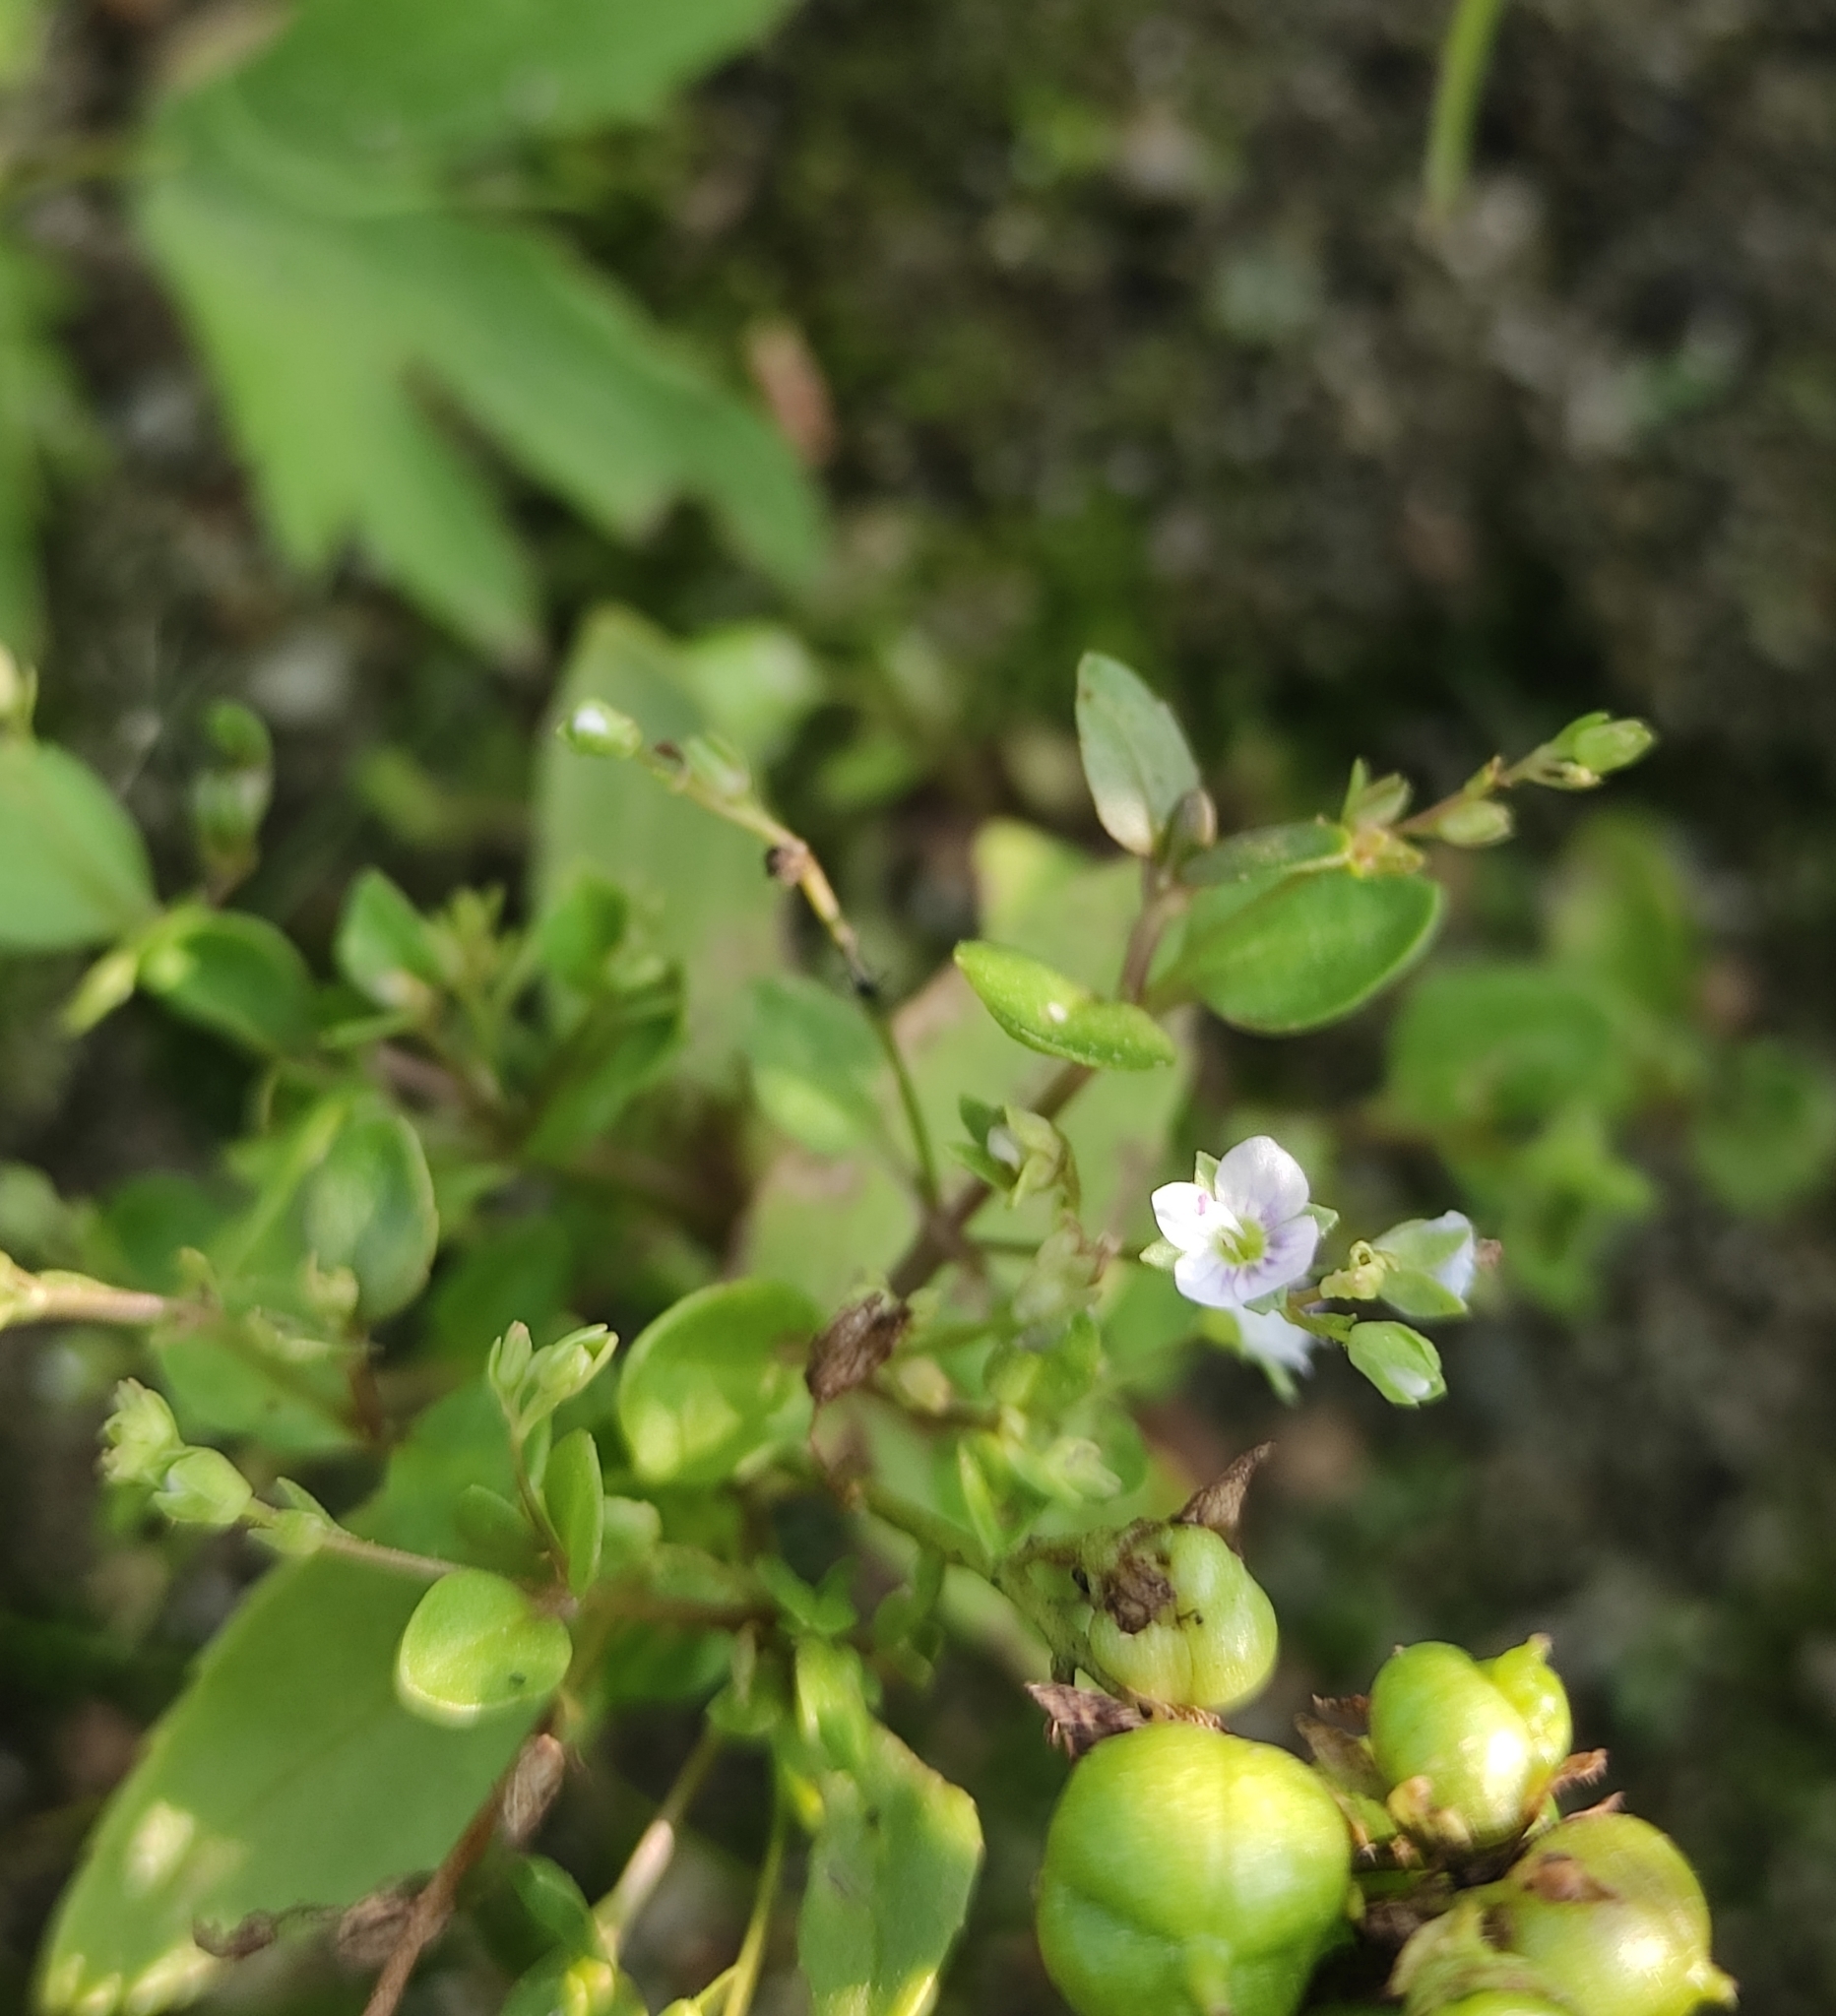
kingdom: Plantae
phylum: Tracheophyta
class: Magnoliopsida
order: Lamiales
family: Plantaginaceae
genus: Veronica
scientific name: Veronica anagallis-aquatica
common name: Water speedwell
